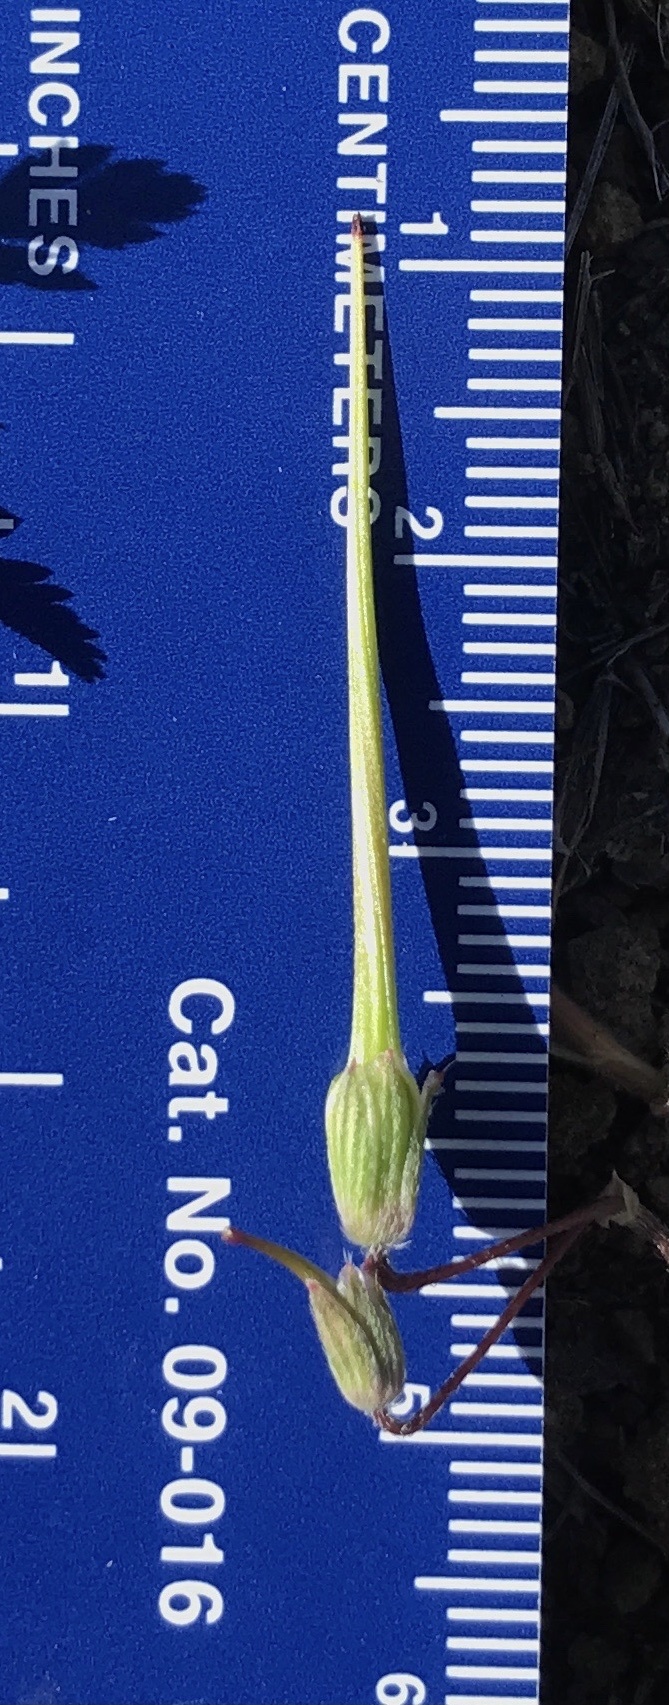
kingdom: Plantae
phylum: Tracheophyta
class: Magnoliopsida
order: Geraniales
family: Geraniaceae
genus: Erodium
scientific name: Erodium cicutarium
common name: Common stork's-bill
